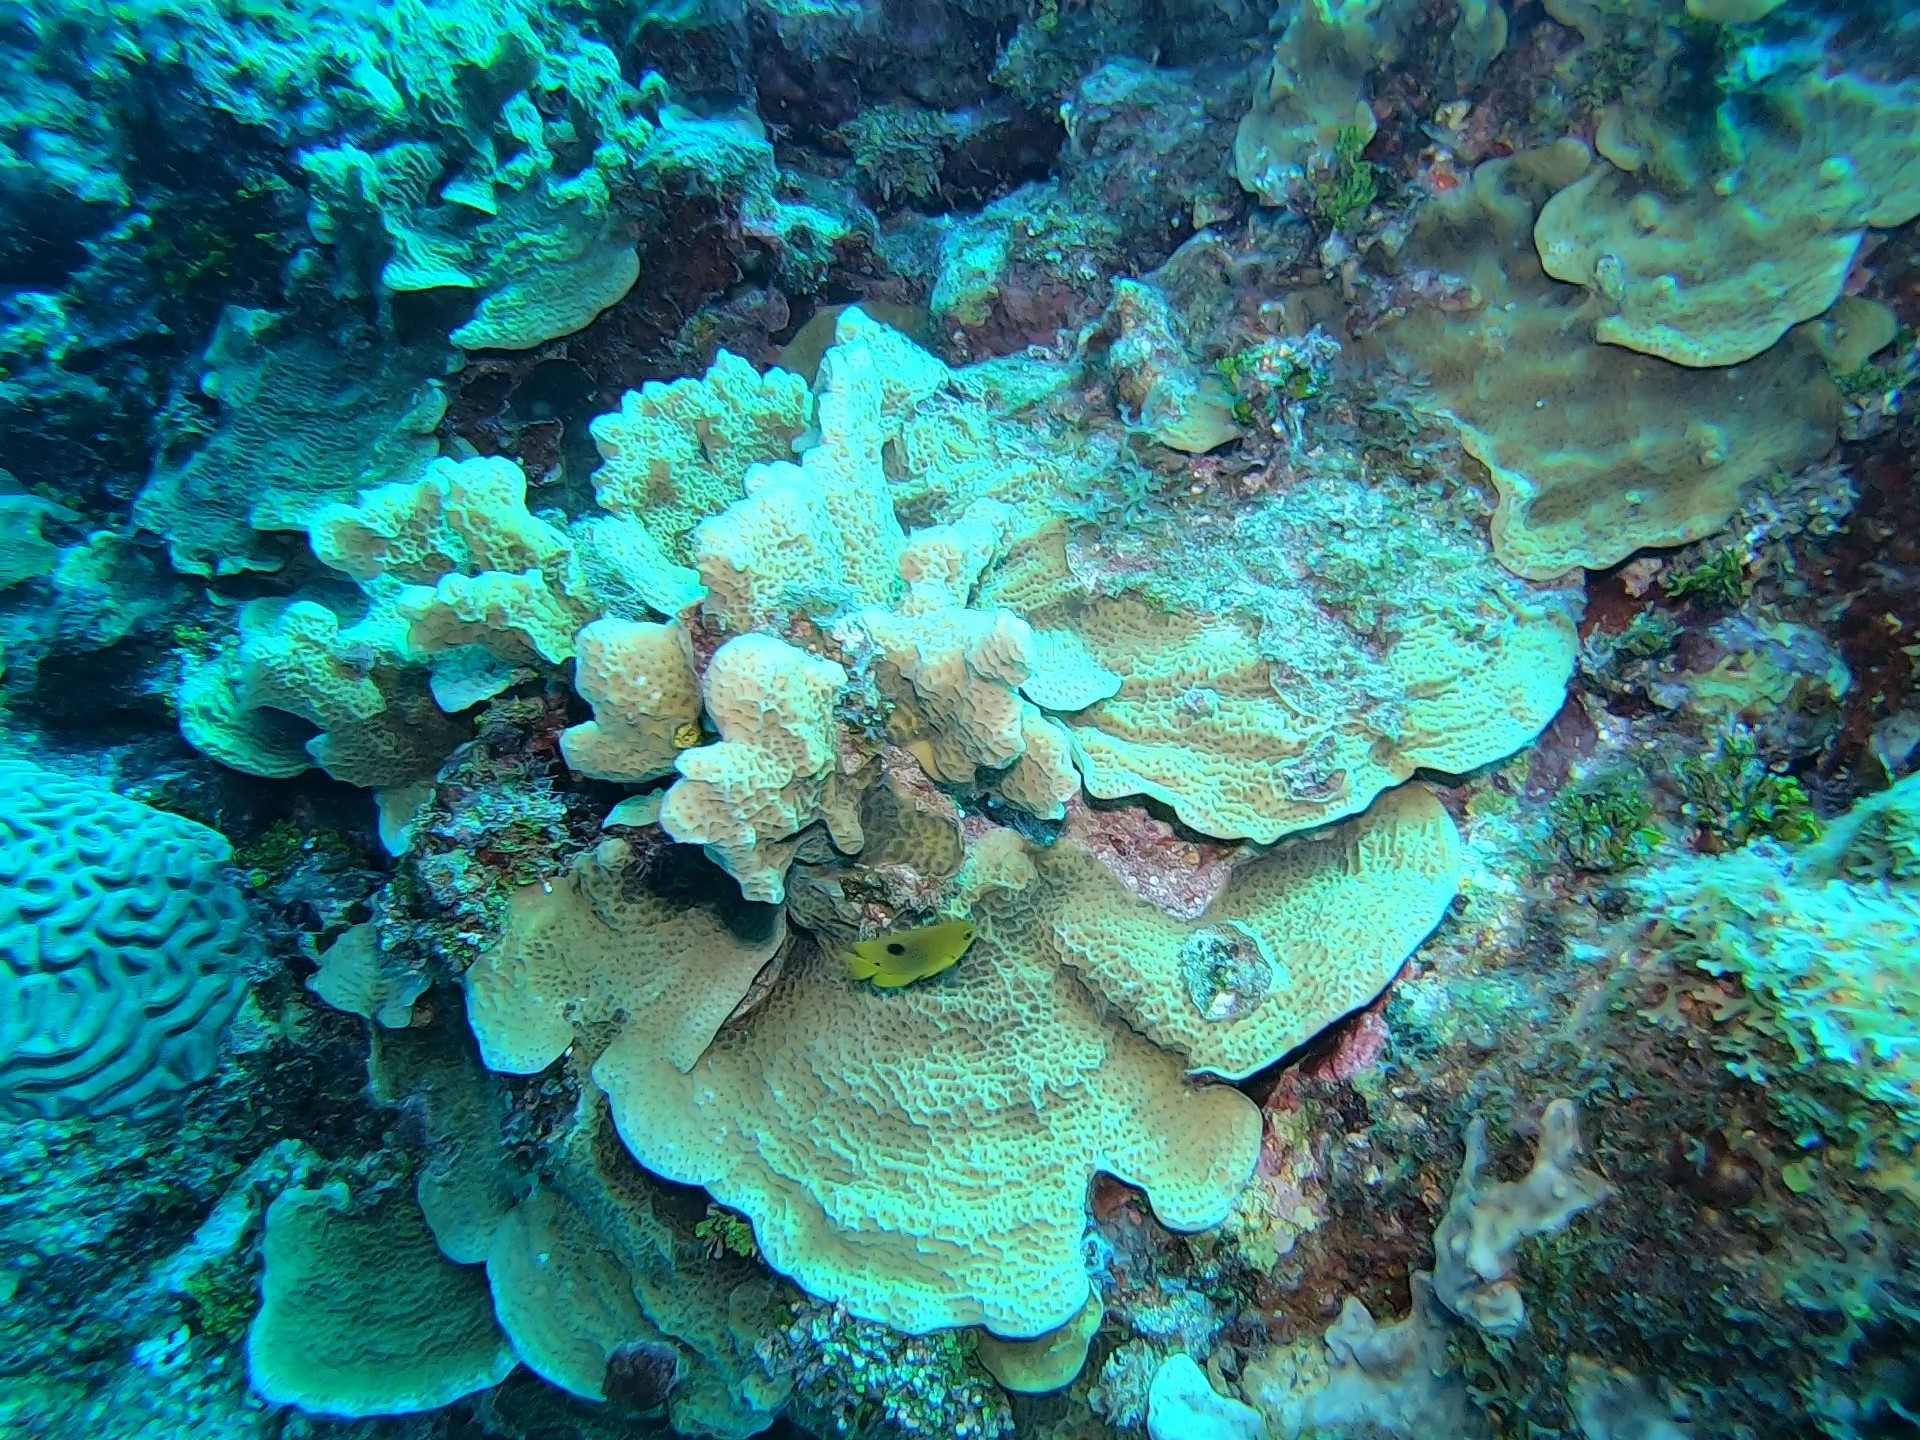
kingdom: Animalia
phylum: Chordata
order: Perciformes
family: Pomacentridae
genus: Stegastes
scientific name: Stegastes planifrons
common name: Threespot damselfish
